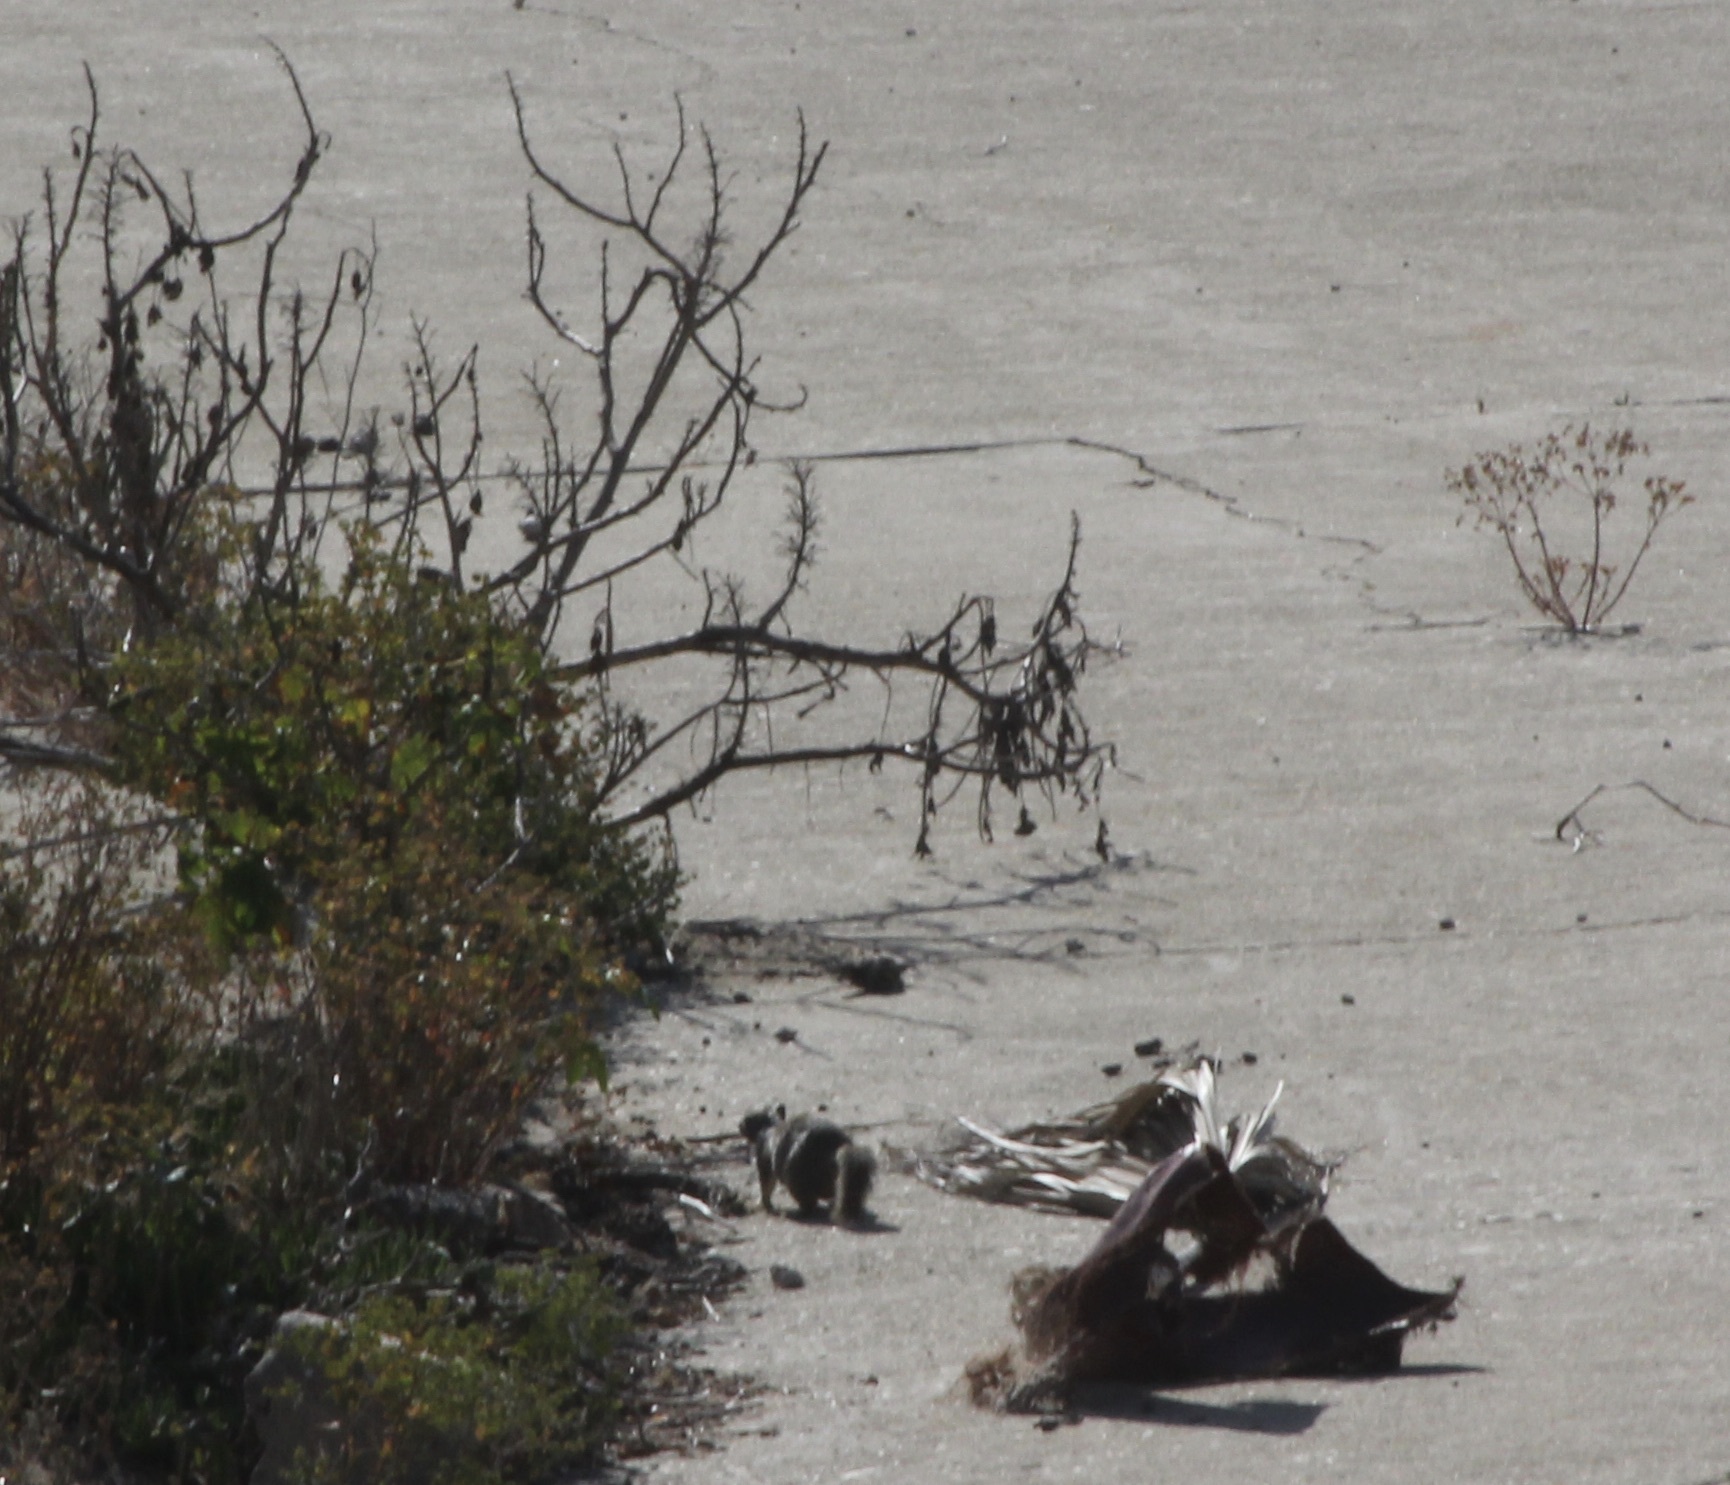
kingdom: Animalia
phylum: Chordata
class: Mammalia
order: Rodentia
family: Sciuridae
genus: Otospermophilus
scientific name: Otospermophilus beecheyi
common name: California ground squirrel
